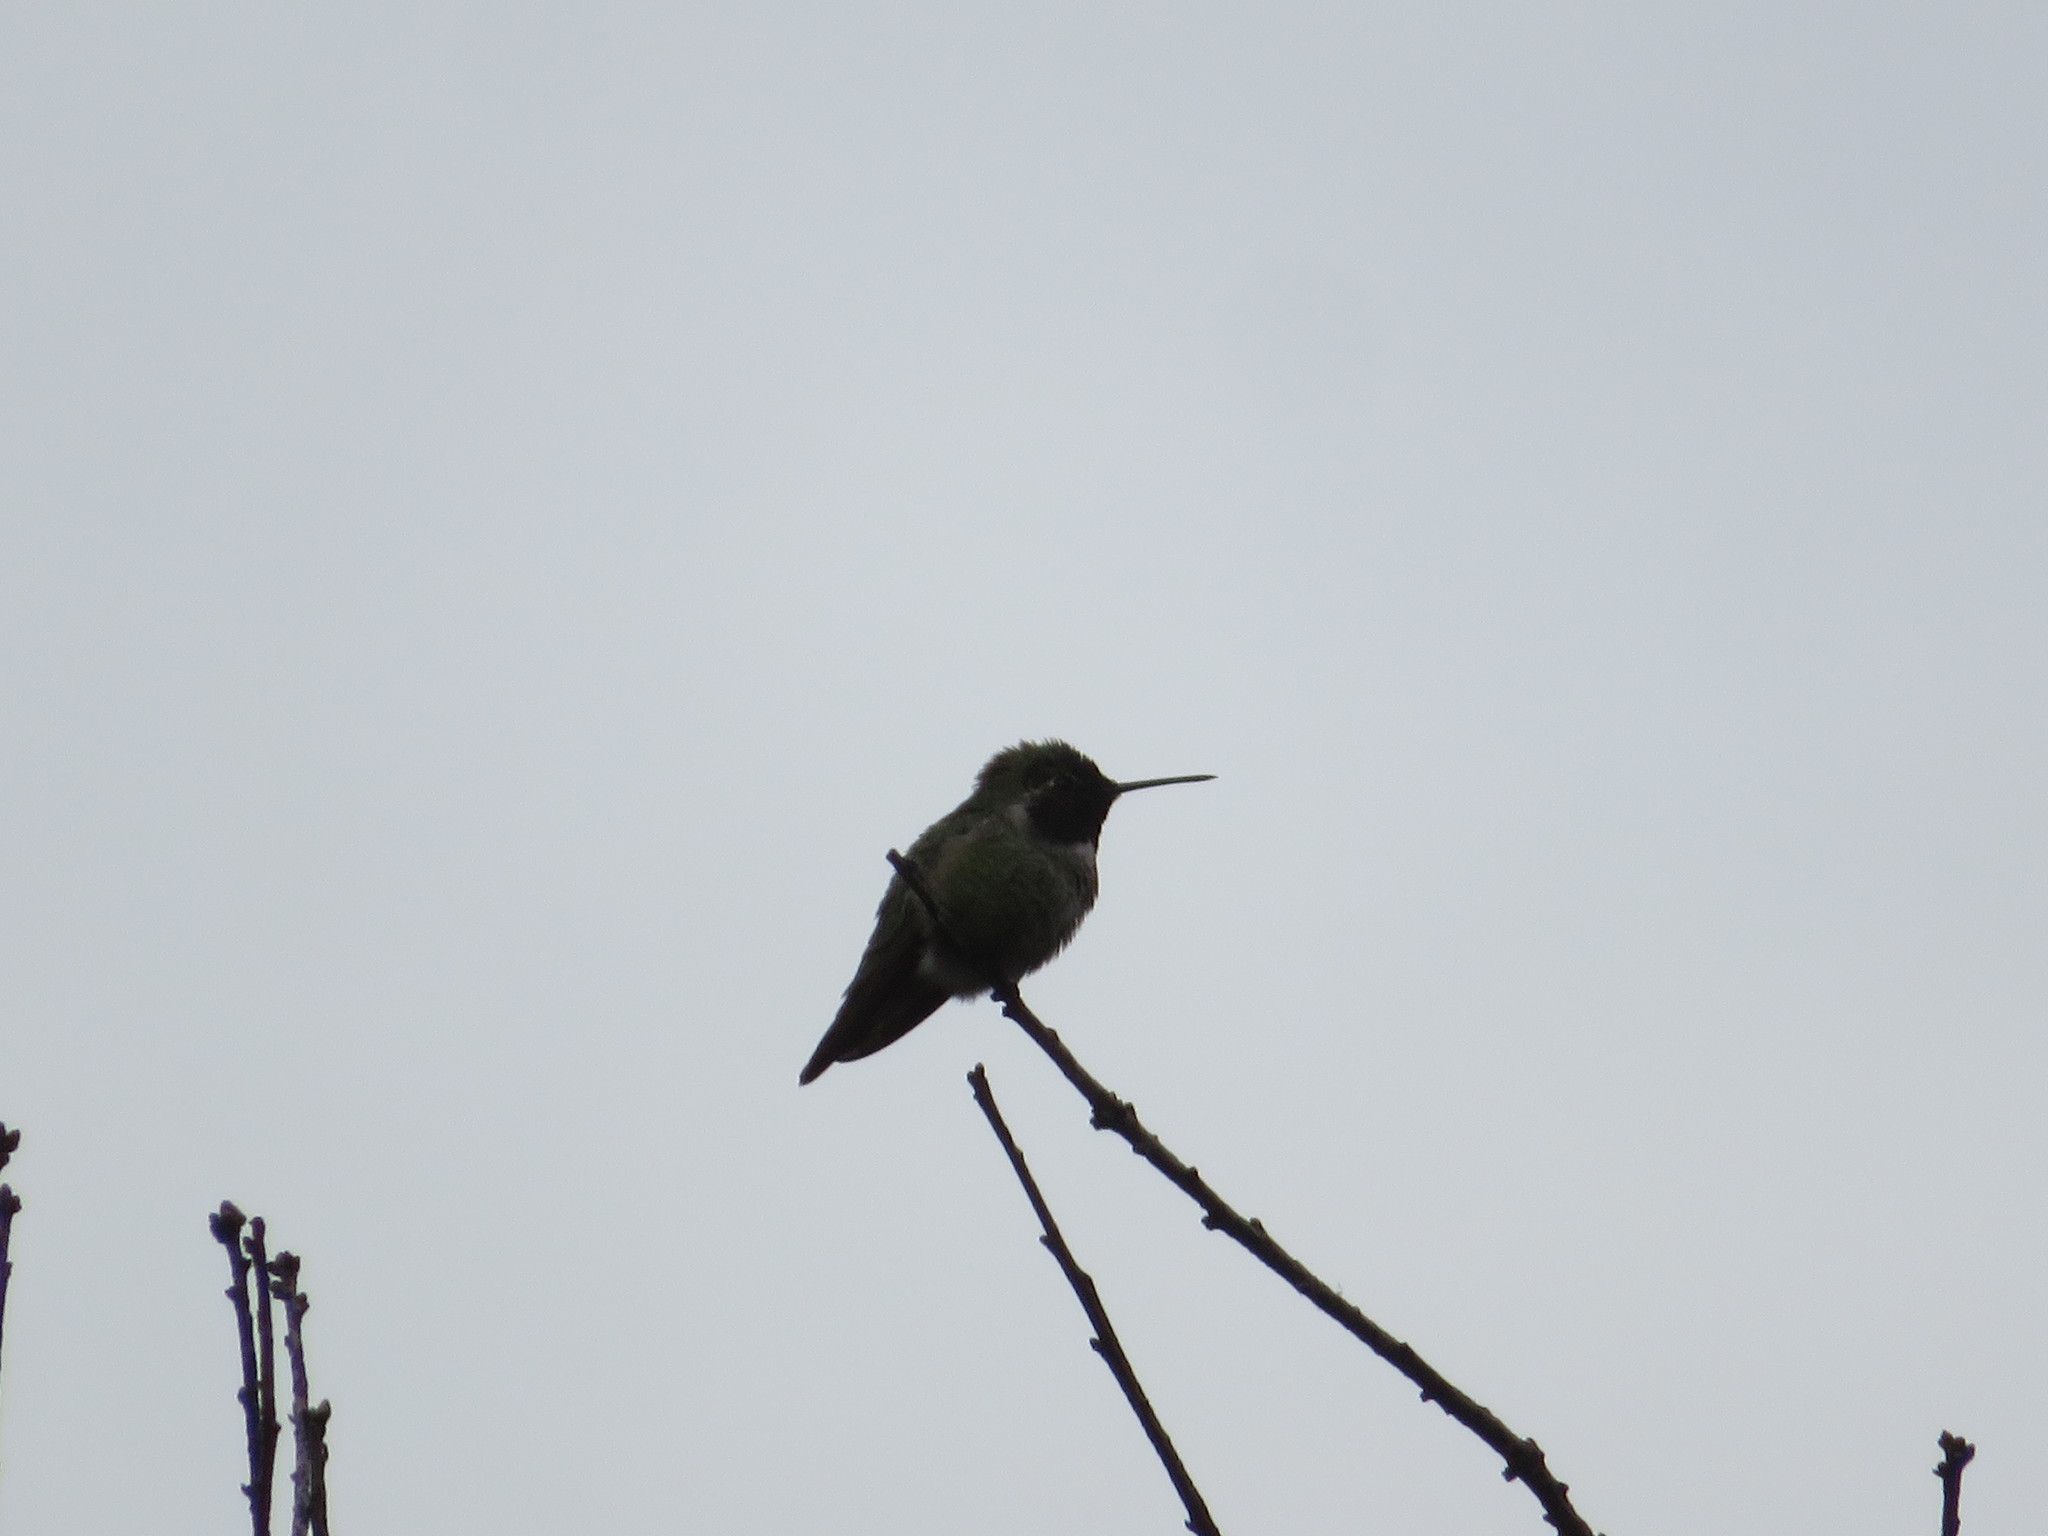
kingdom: Animalia
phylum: Chordata
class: Aves
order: Apodiformes
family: Trochilidae
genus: Calypte
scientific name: Calypte anna
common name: Anna's hummingbird
